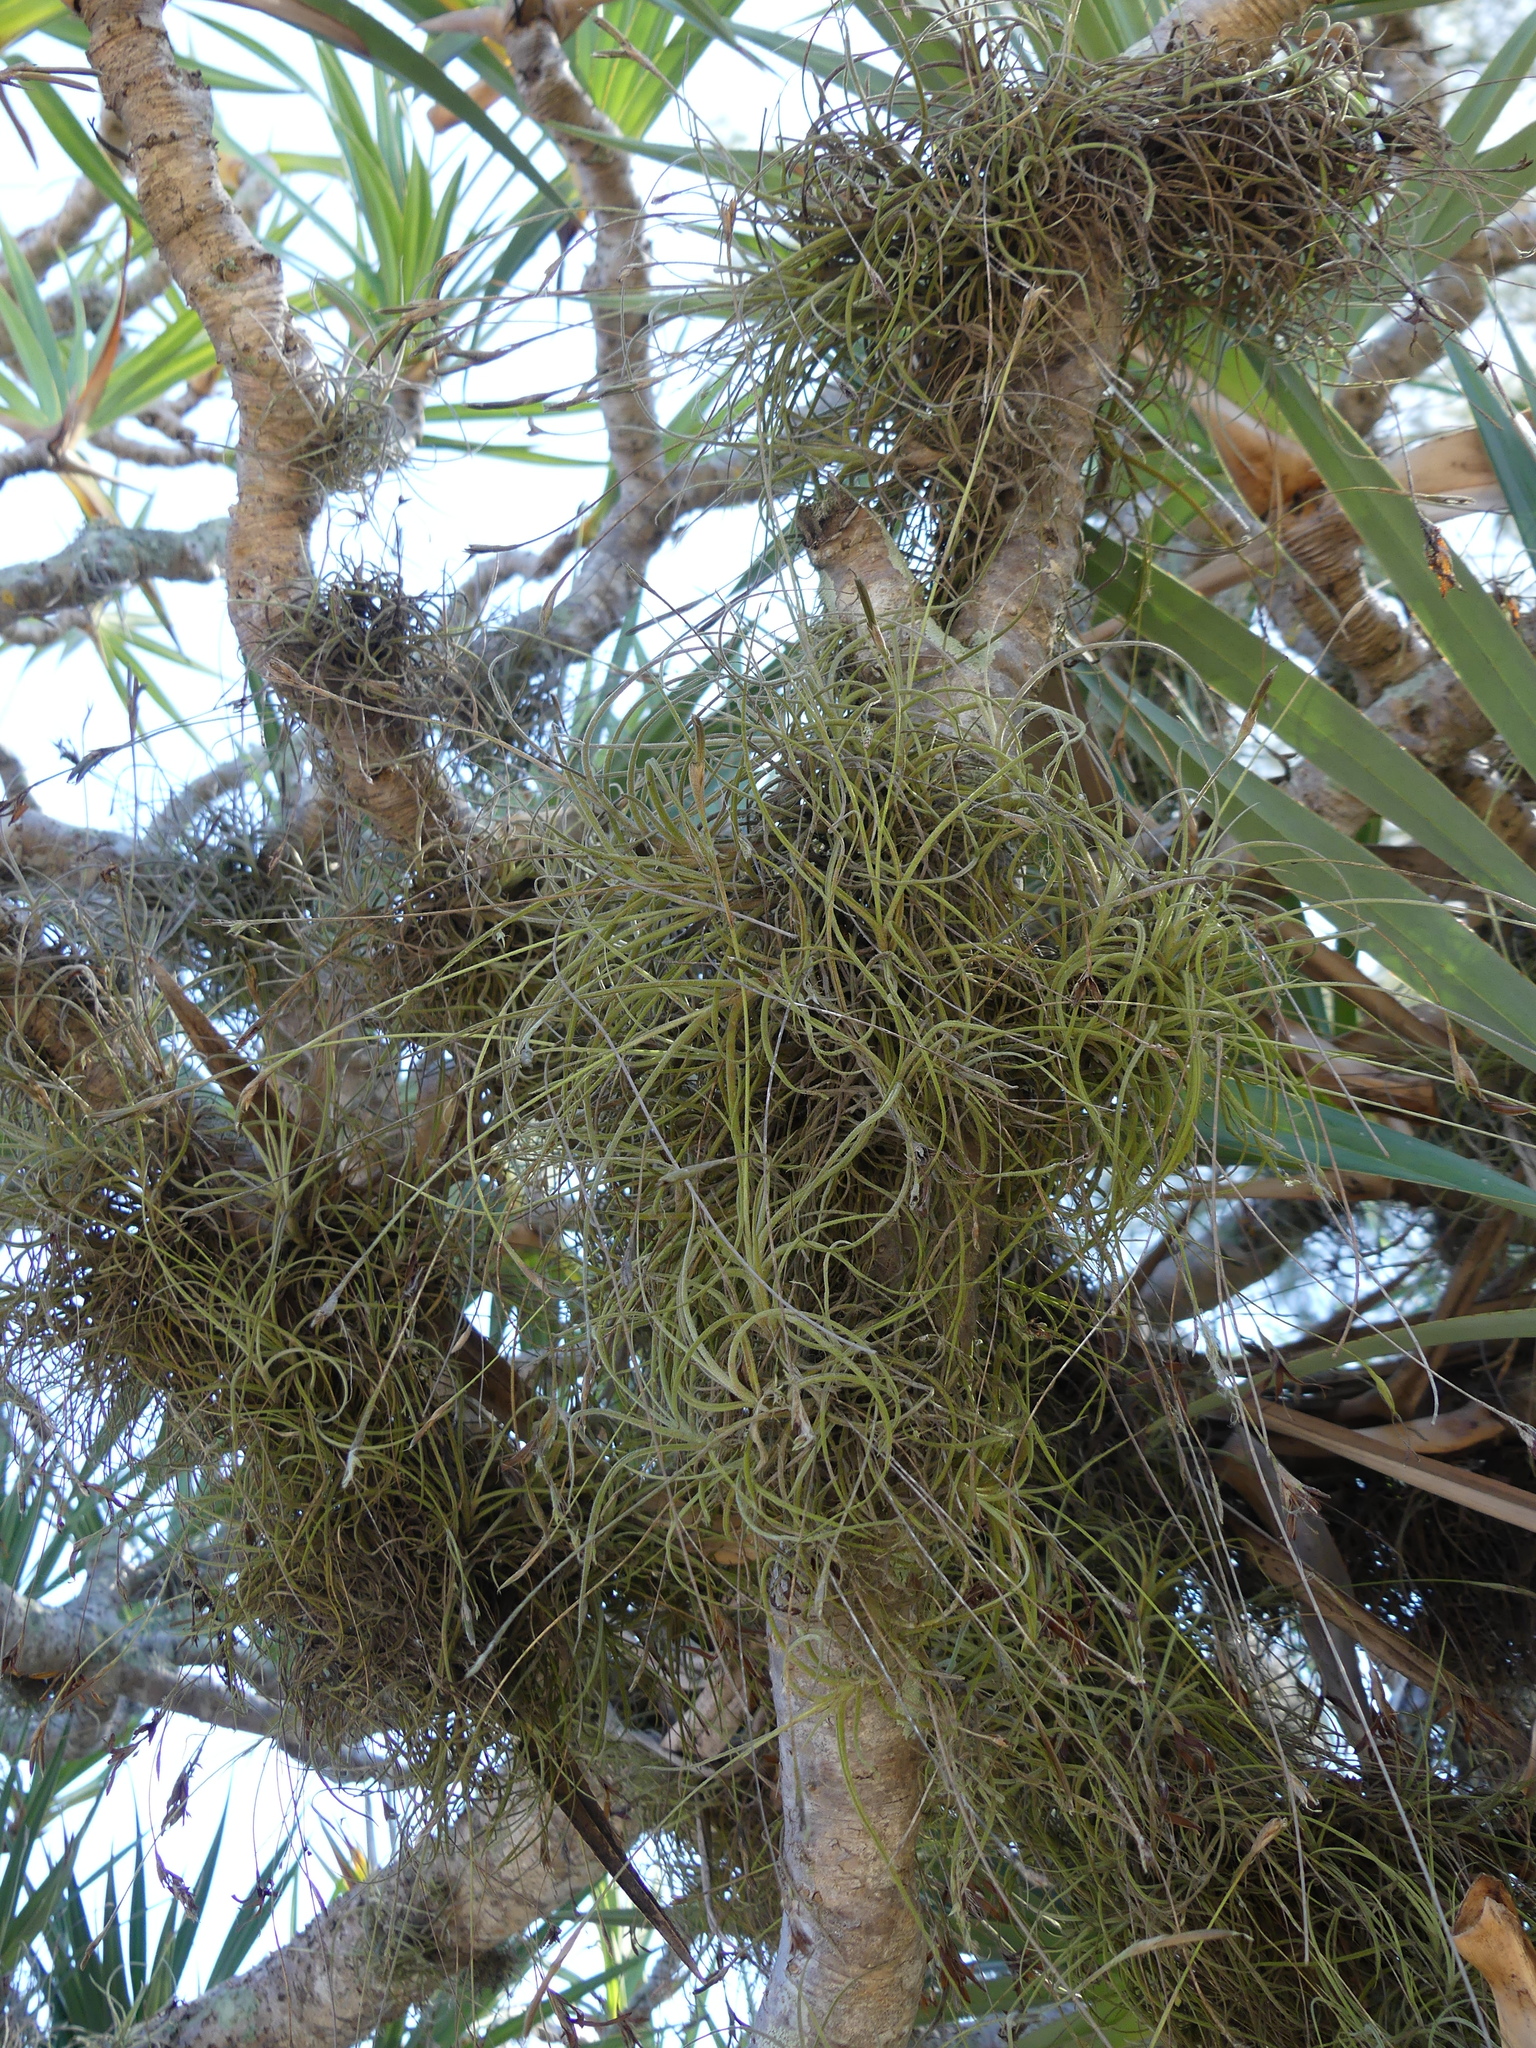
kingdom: Plantae
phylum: Tracheophyta
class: Liliopsida
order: Poales
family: Bromeliaceae
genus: Tillandsia
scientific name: Tillandsia recurvata
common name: Small ballmoss
